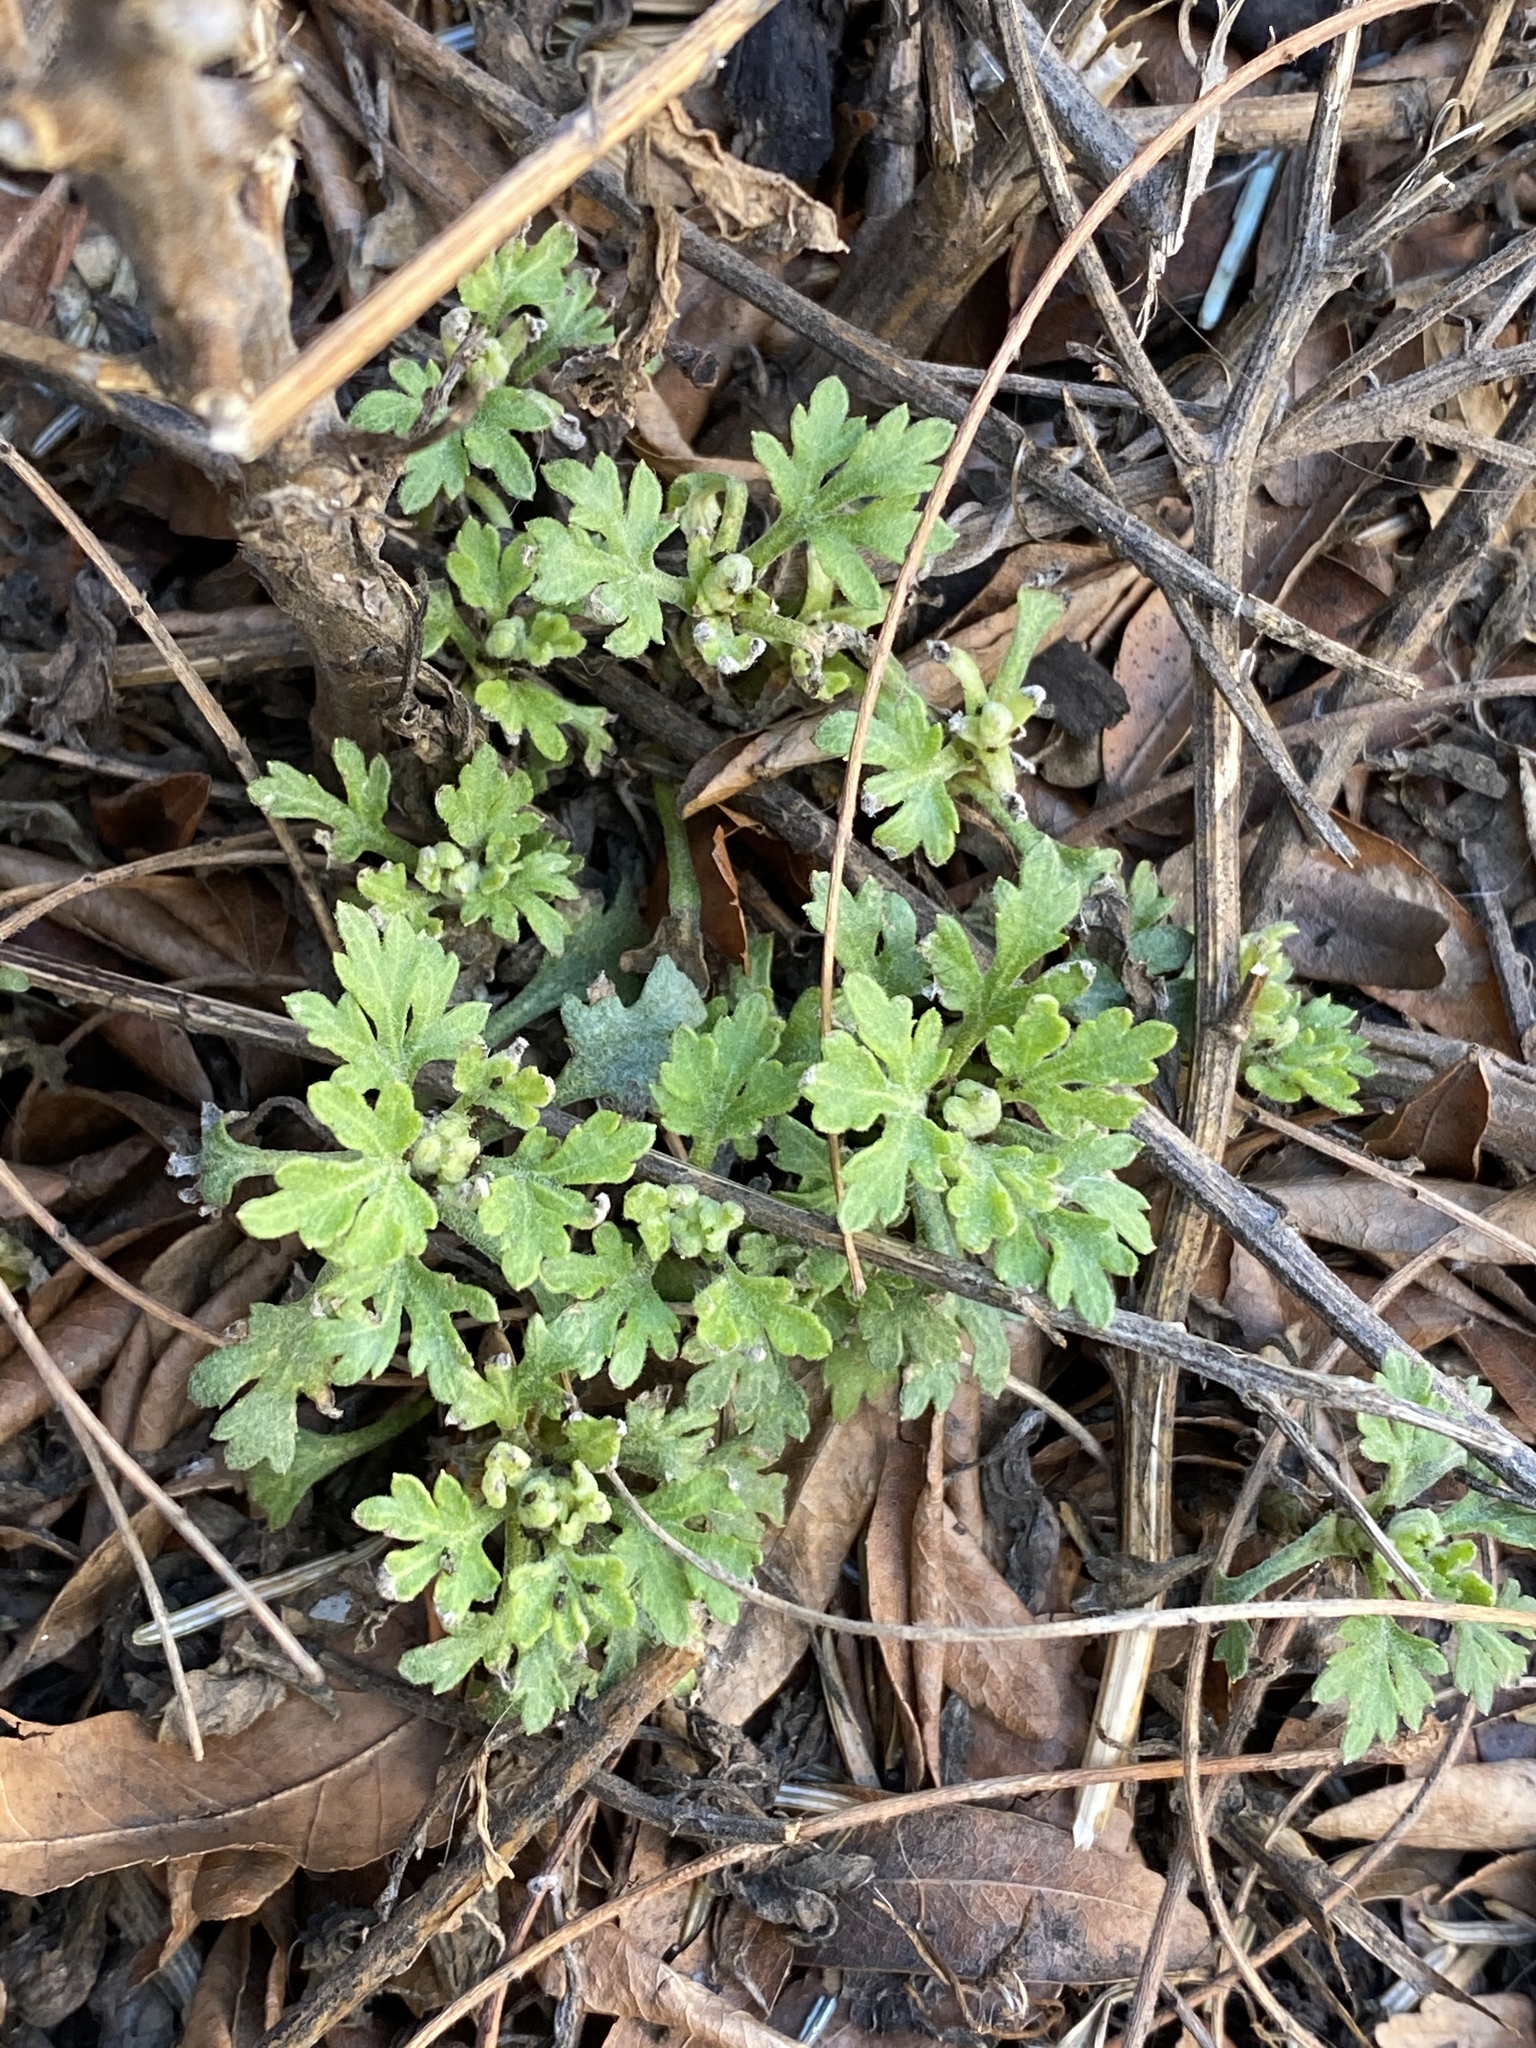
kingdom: Plantae
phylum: Tracheophyta
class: Magnoliopsida
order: Asterales
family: Asteraceae
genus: Artemisia
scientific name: Artemisia vulgaris
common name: Mugwort
